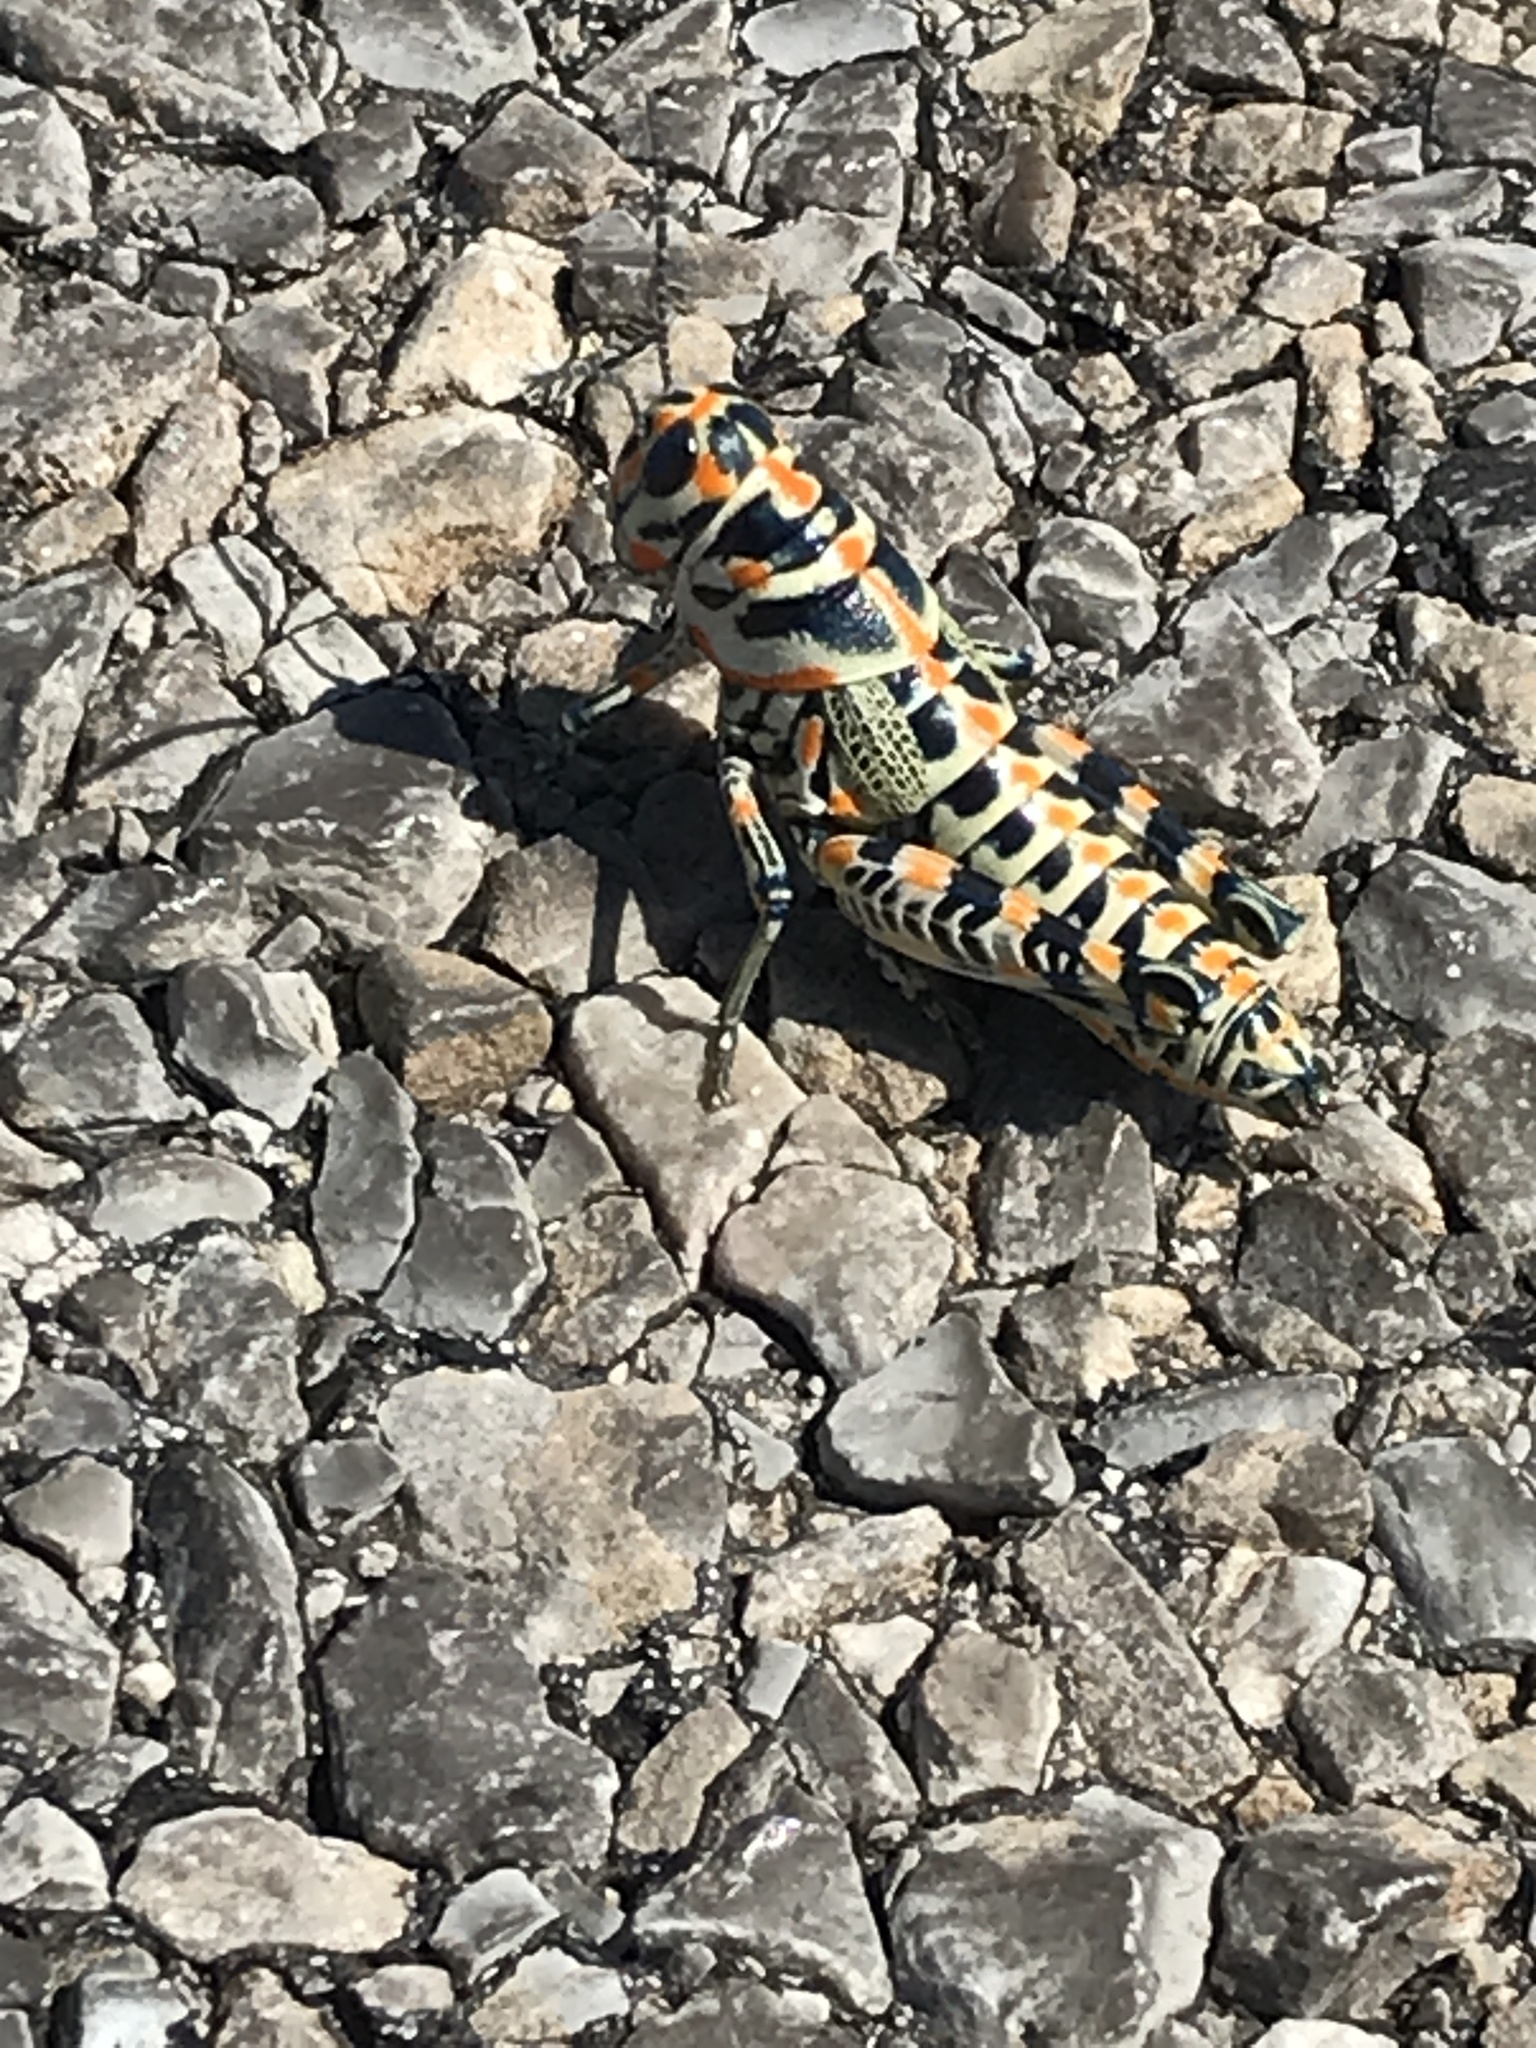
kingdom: Animalia
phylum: Arthropoda
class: Insecta
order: Orthoptera
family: Acrididae
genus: Dactylotum
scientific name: Dactylotum bicolor
